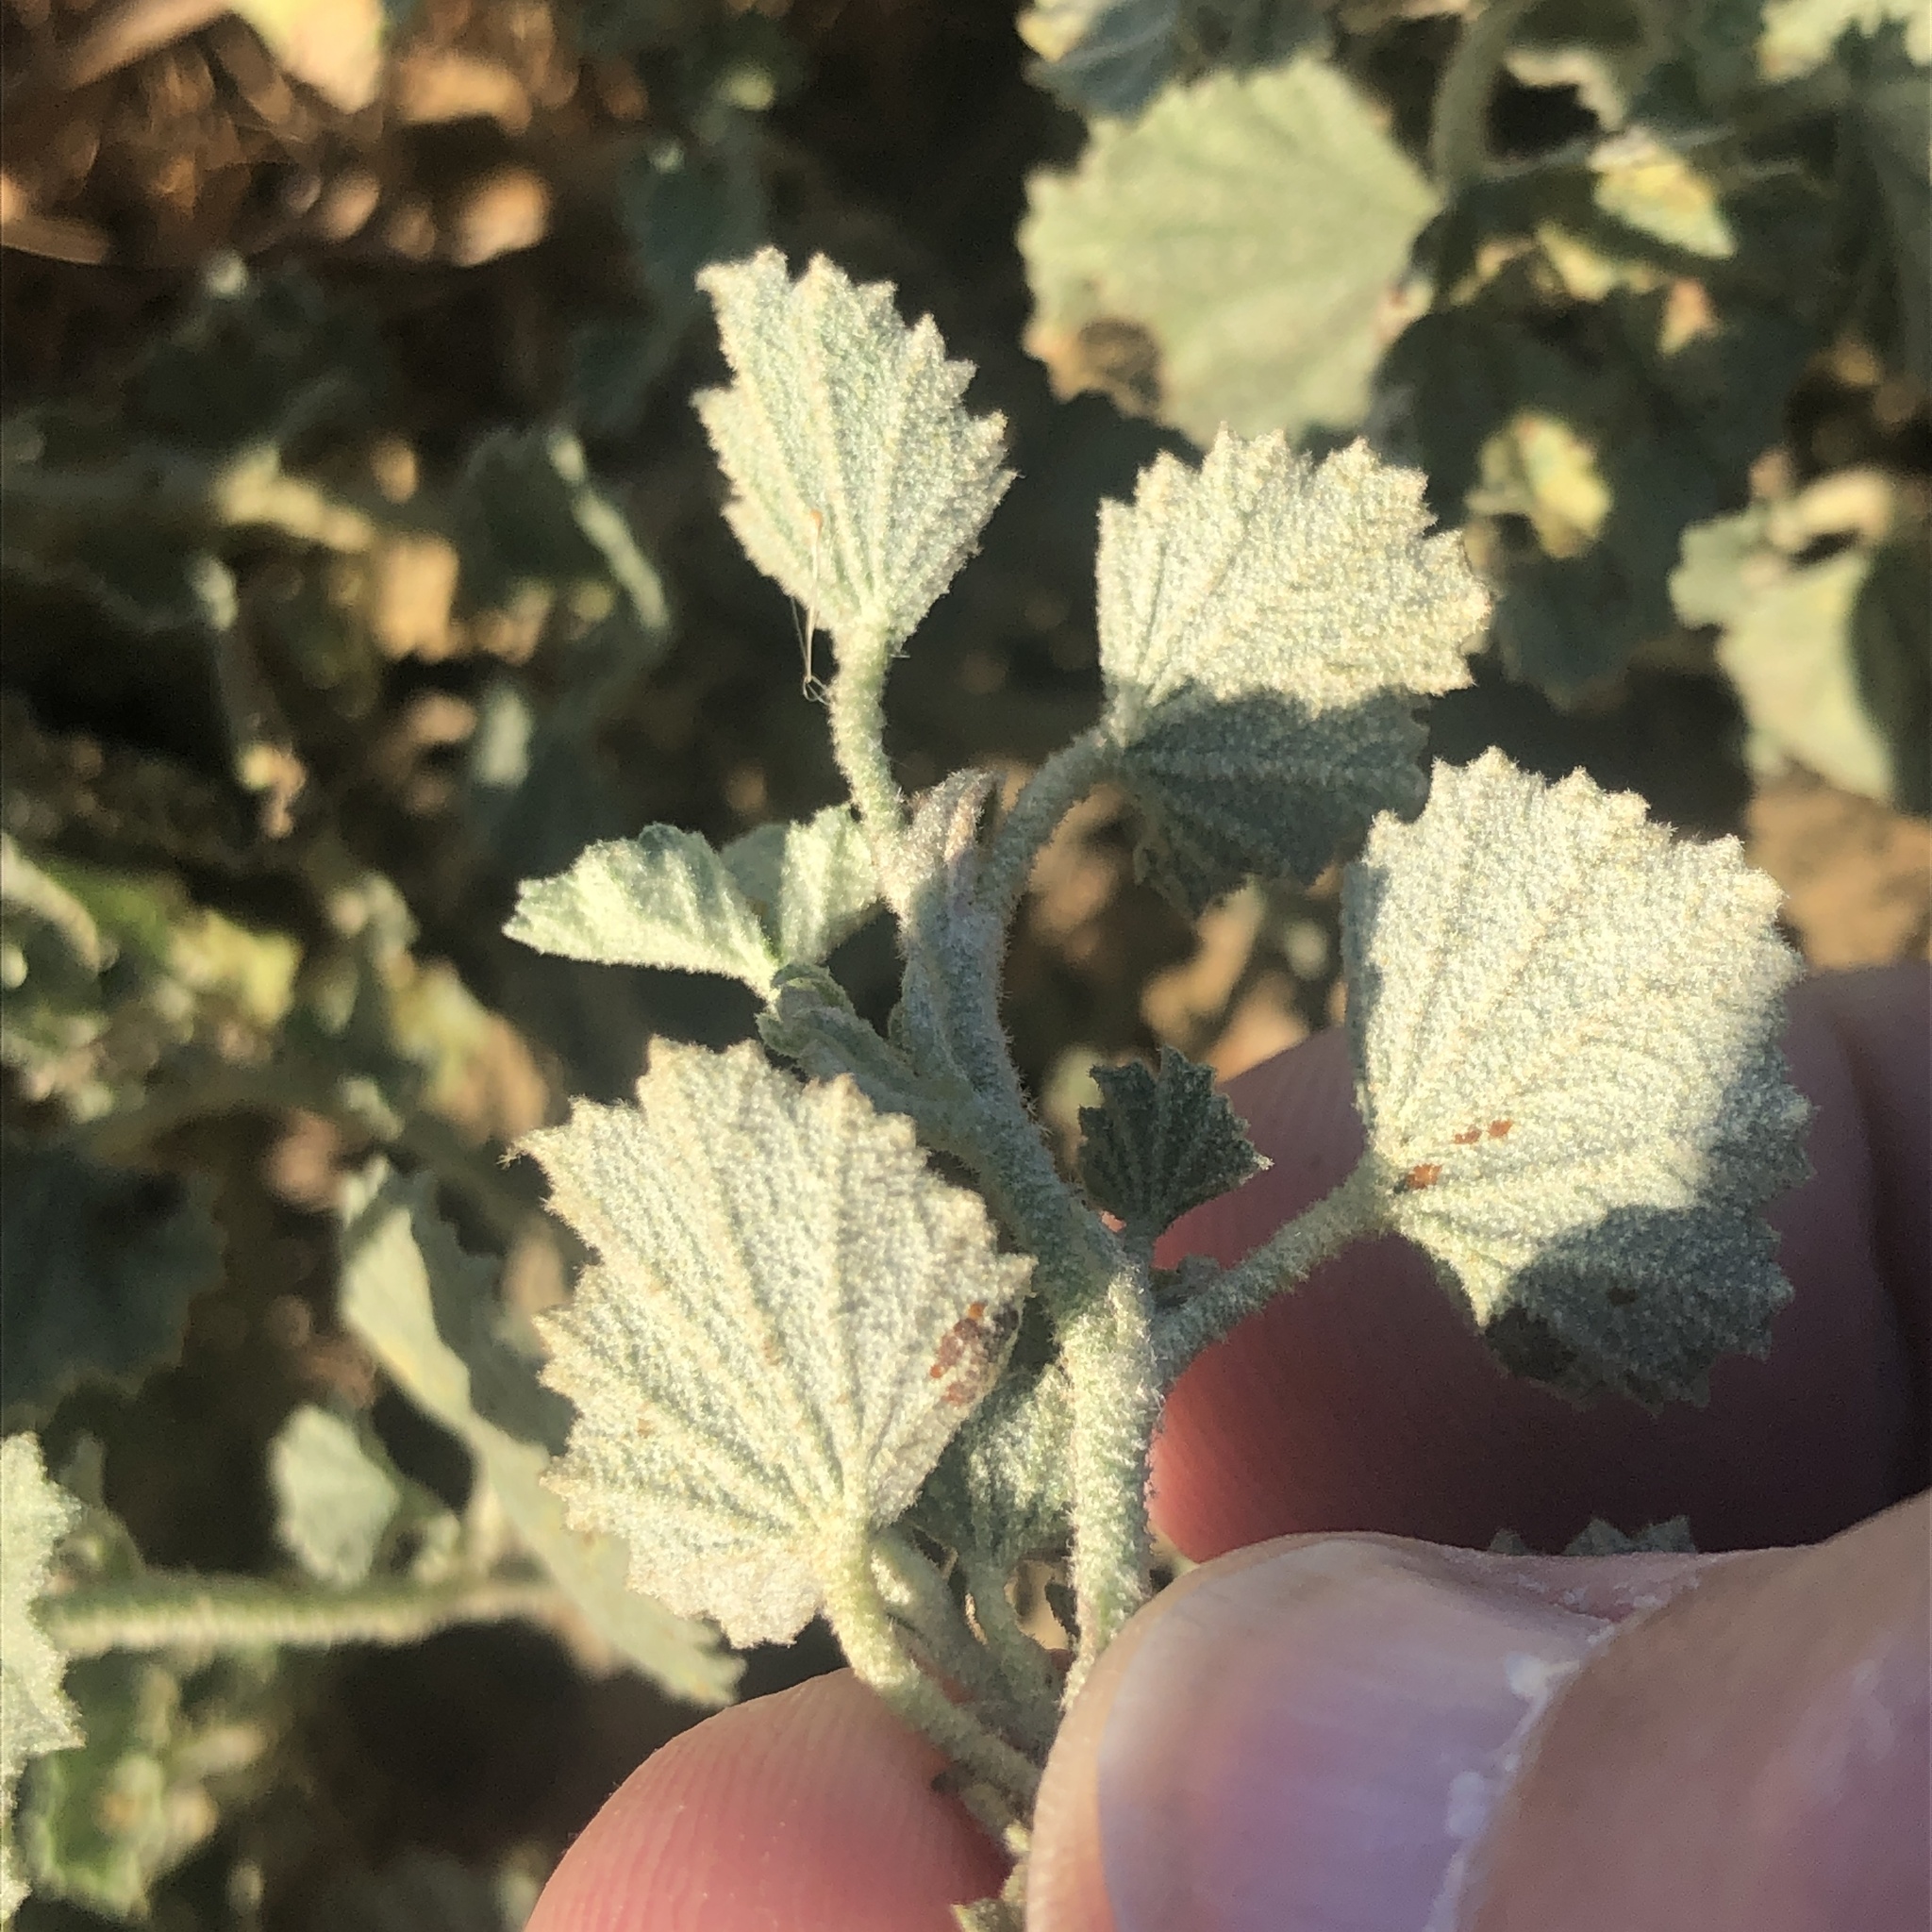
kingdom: Plantae
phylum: Tracheophyta
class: Magnoliopsida
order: Malvales
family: Malvaceae
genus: Malvella
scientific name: Malvella leprosa
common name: Alkali-mallow
